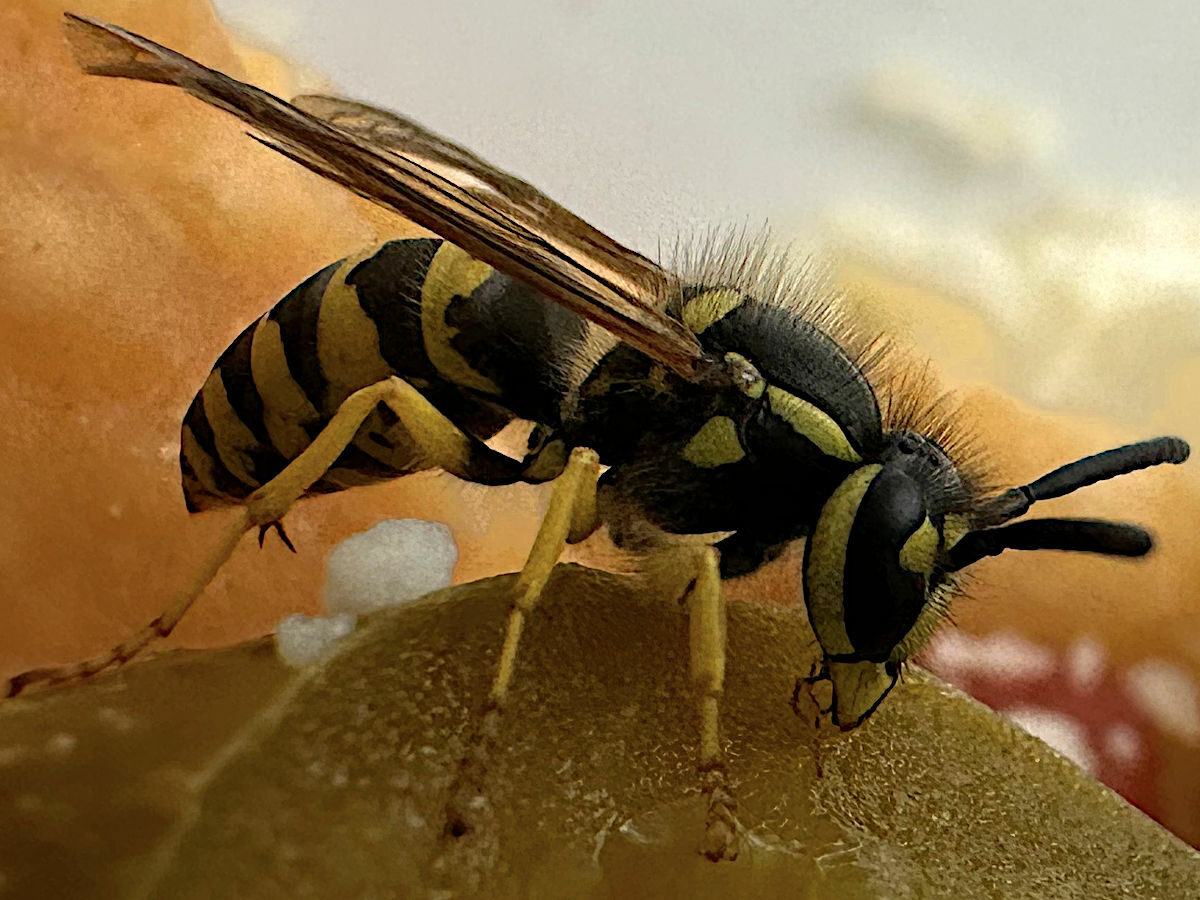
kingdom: Animalia
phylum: Arthropoda
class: Insecta
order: Hymenoptera
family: Vespidae
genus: Vespula
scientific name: Vespula maculifrons
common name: Eastern yellowjacket
